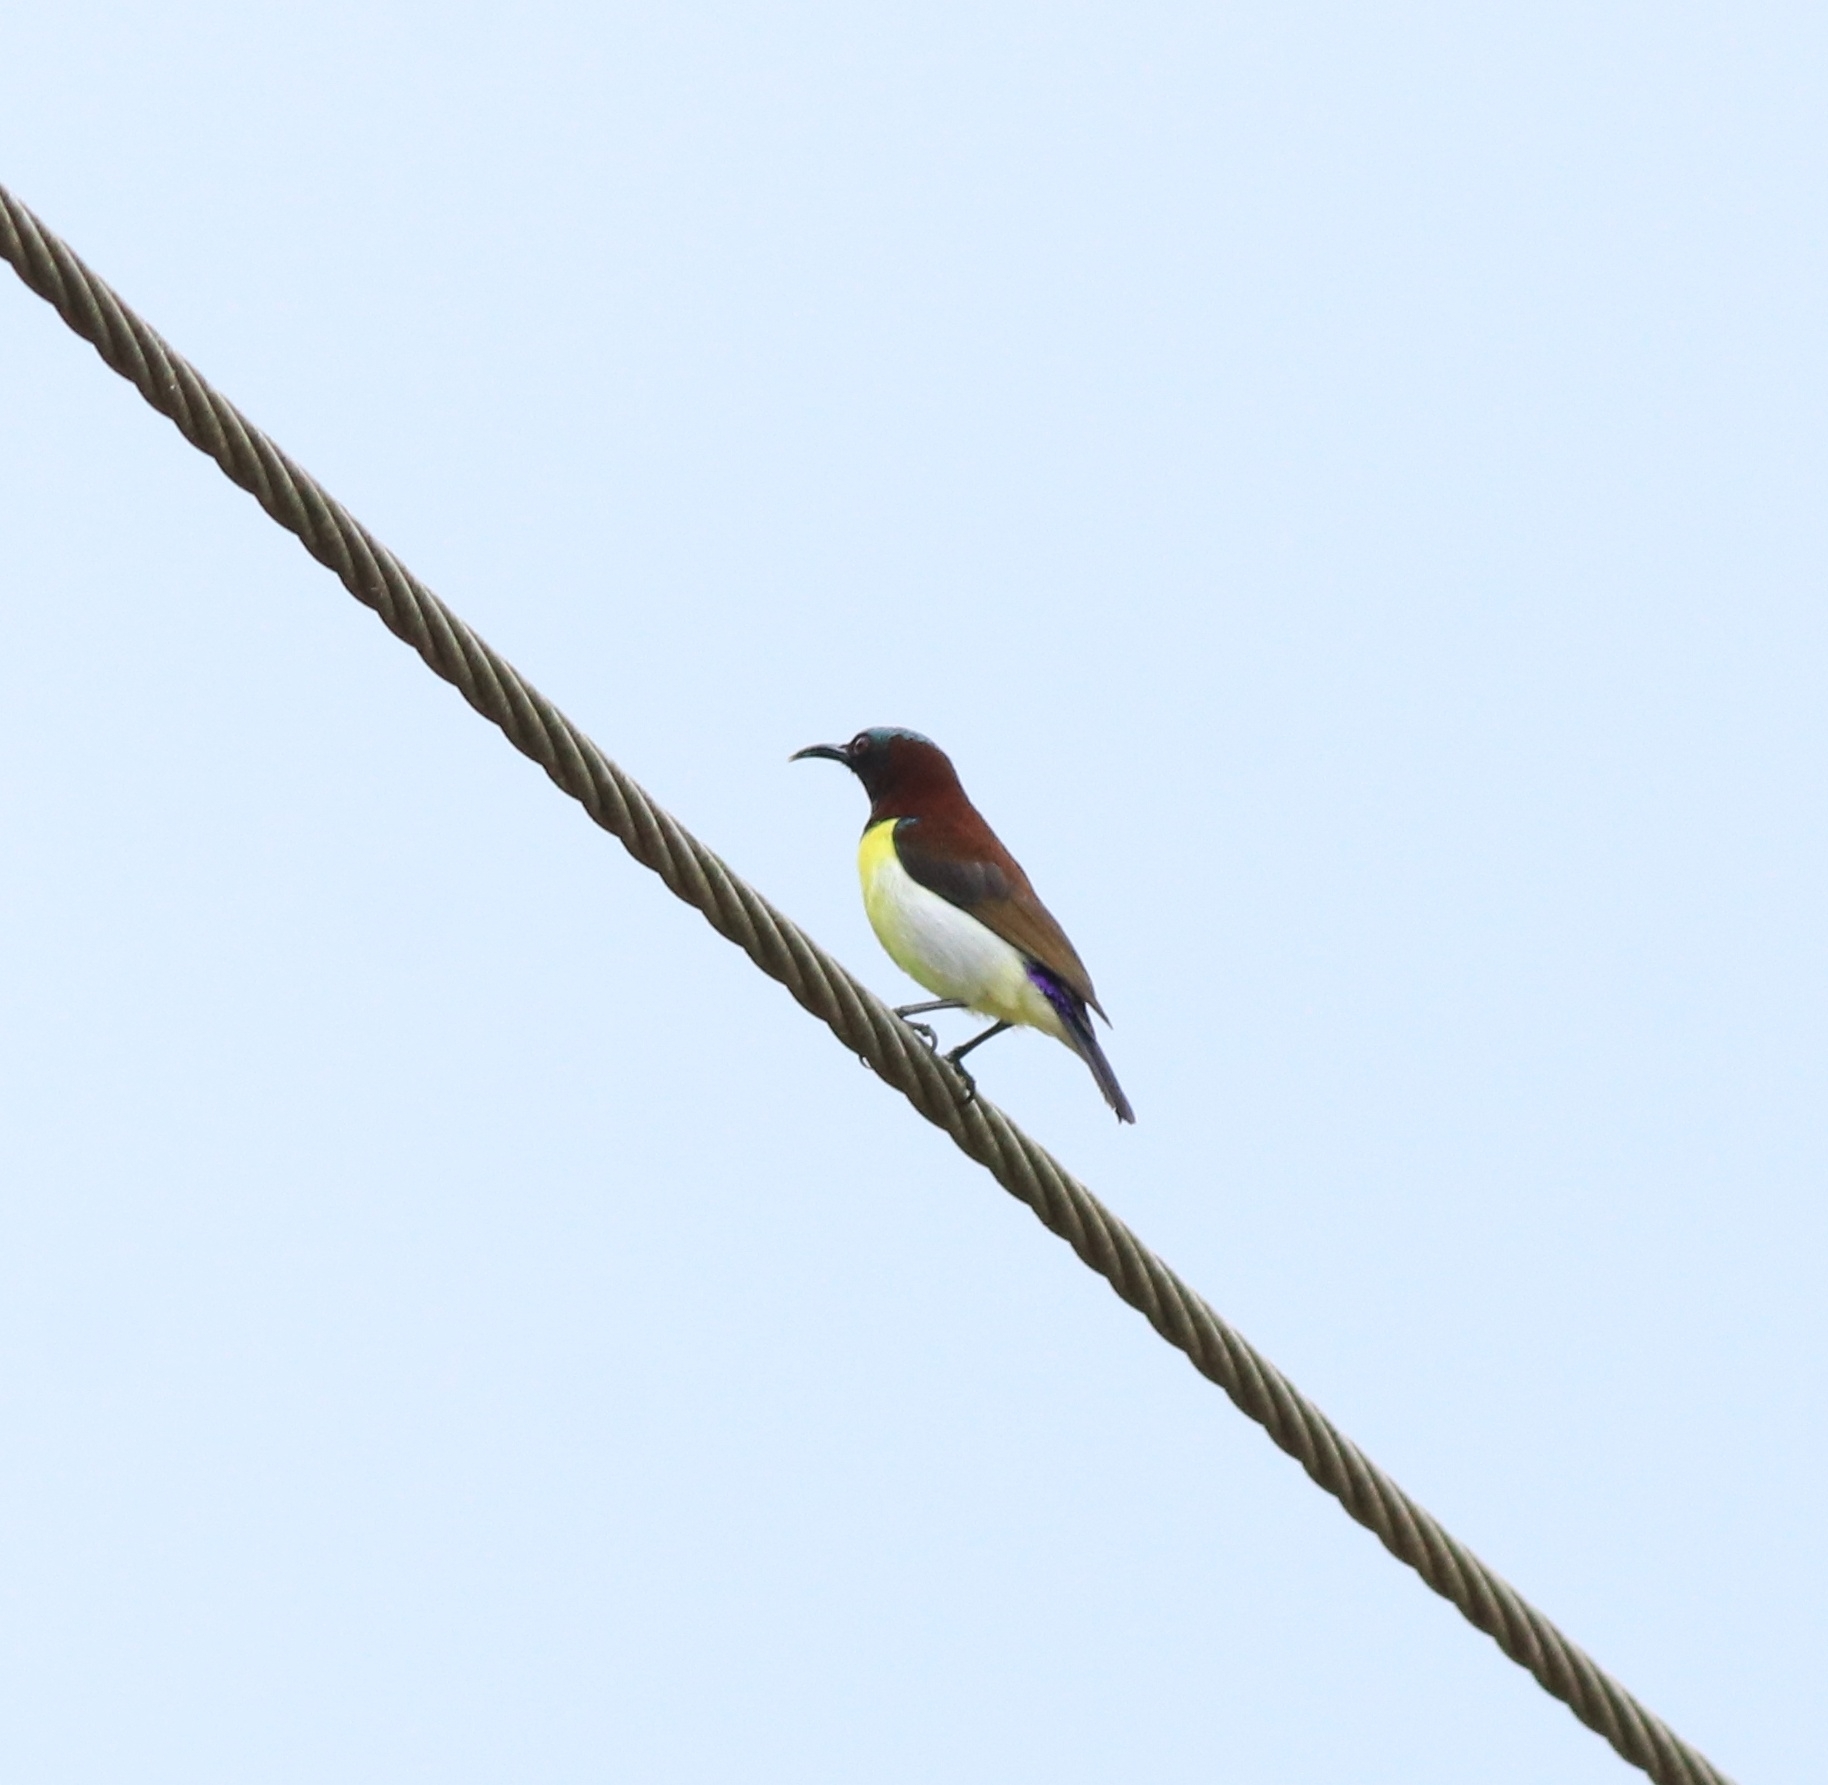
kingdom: Animalia
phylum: Chordata
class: Aves
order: Passeriformes
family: Nectariniidae
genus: Leptocoma
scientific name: Leptocoma zeylonica
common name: Purple-rumped sunbird
